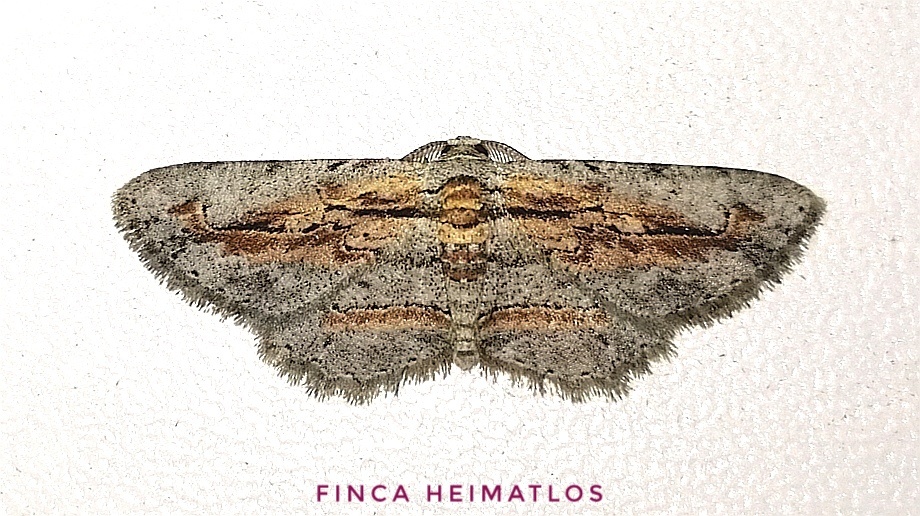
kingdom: Animalia
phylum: Arthropoda
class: Insecta
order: Lepidoptera
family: Geometridae
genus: Odysia
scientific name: Odysia
